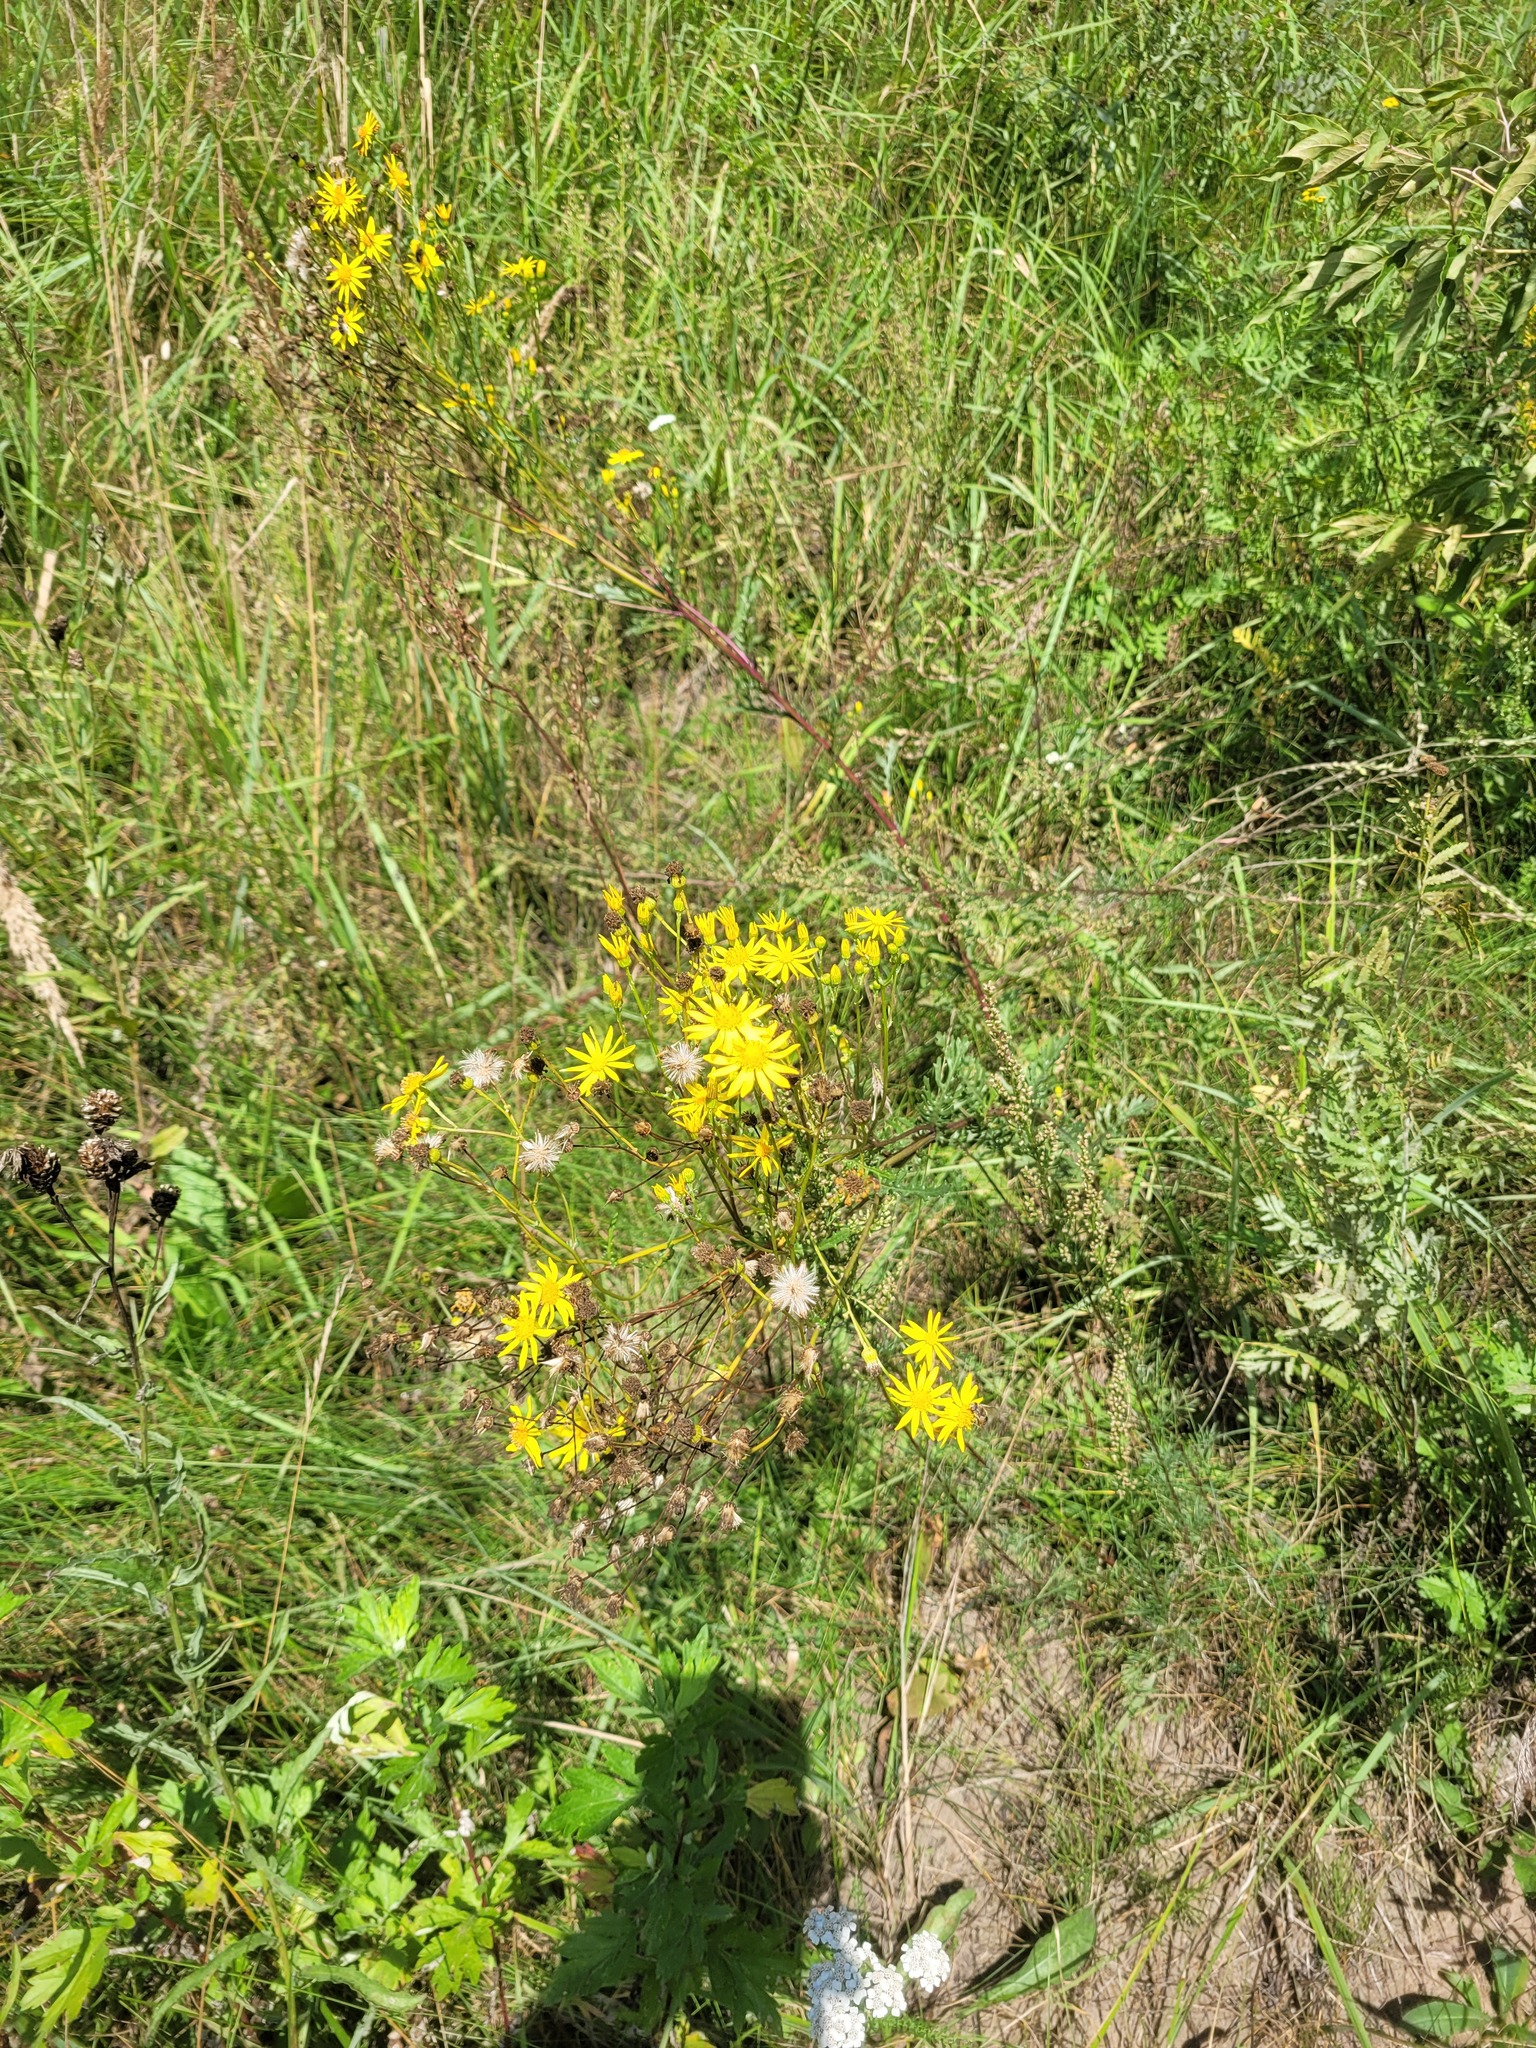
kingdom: Plantae
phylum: Tracheophyta
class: Magnoliopsida
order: Asterales
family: Asteraceae
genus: Jacobaea
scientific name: Jacobaea vulgaris
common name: Stinking willie
